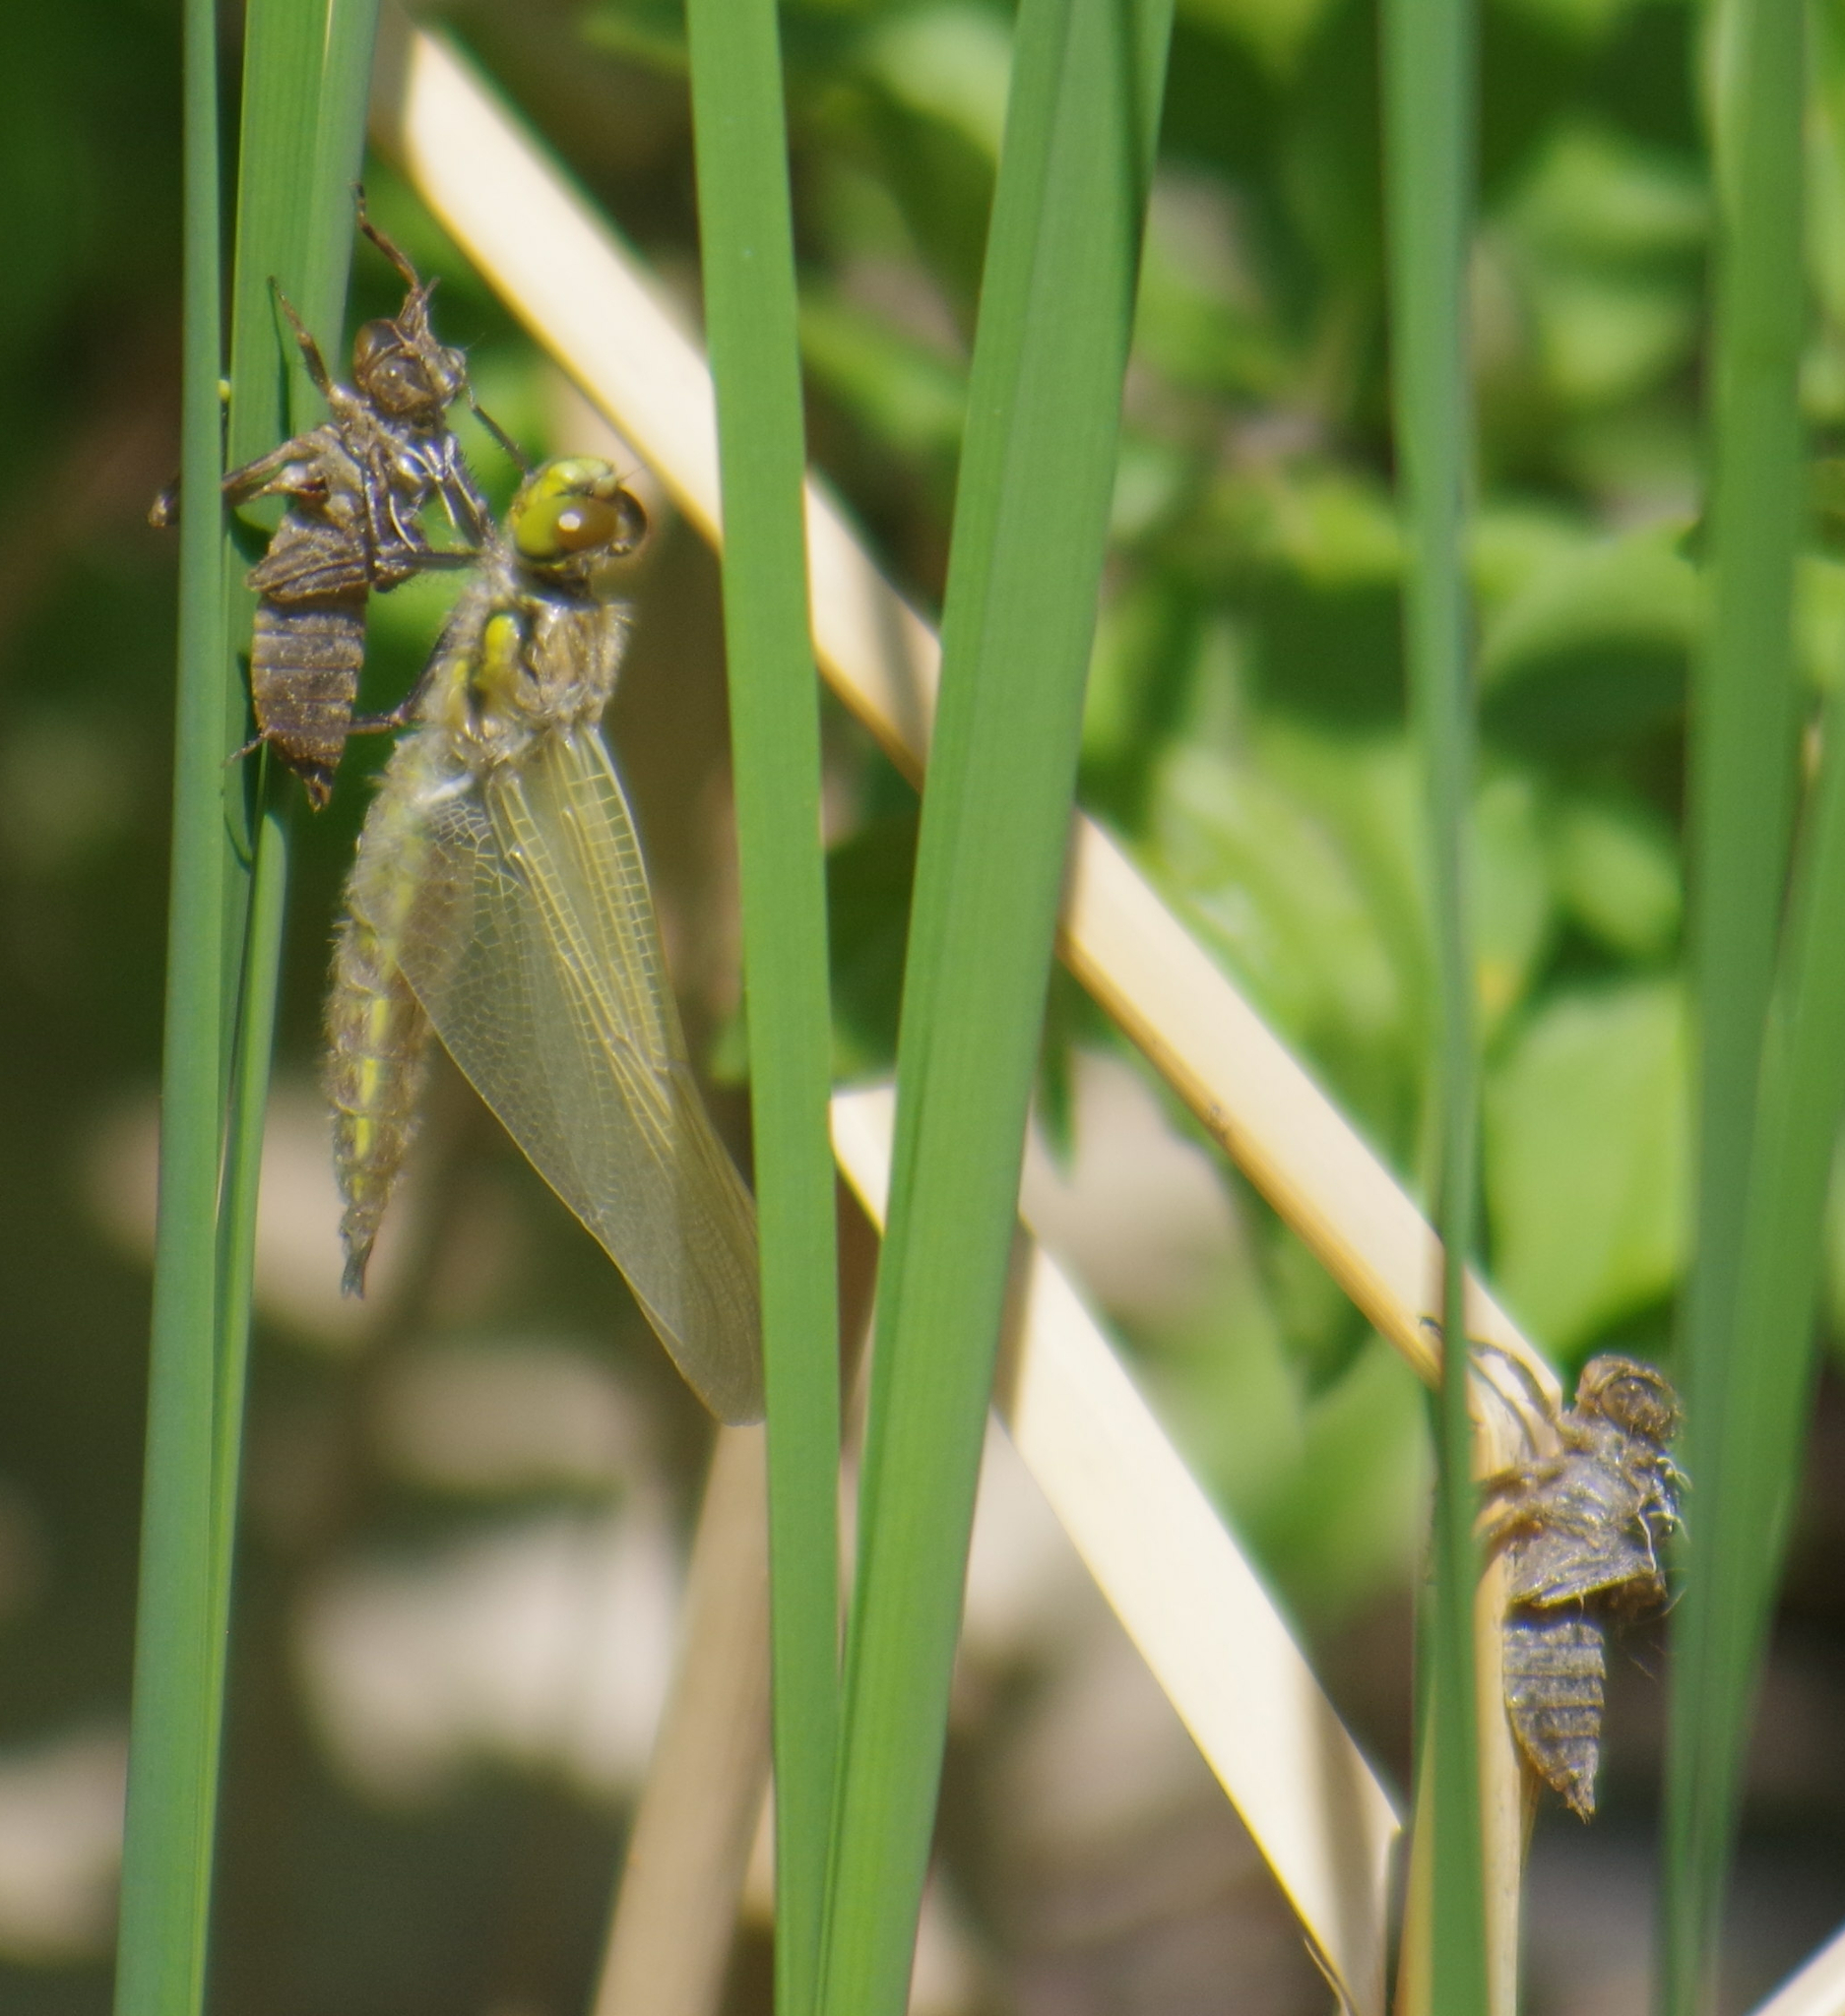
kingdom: Animalia
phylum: Arthropoda
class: Insecta
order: Odonata
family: Libellulidae
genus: Libellula
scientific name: Libellula quadrimaculata
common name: Four-spotted chaser
